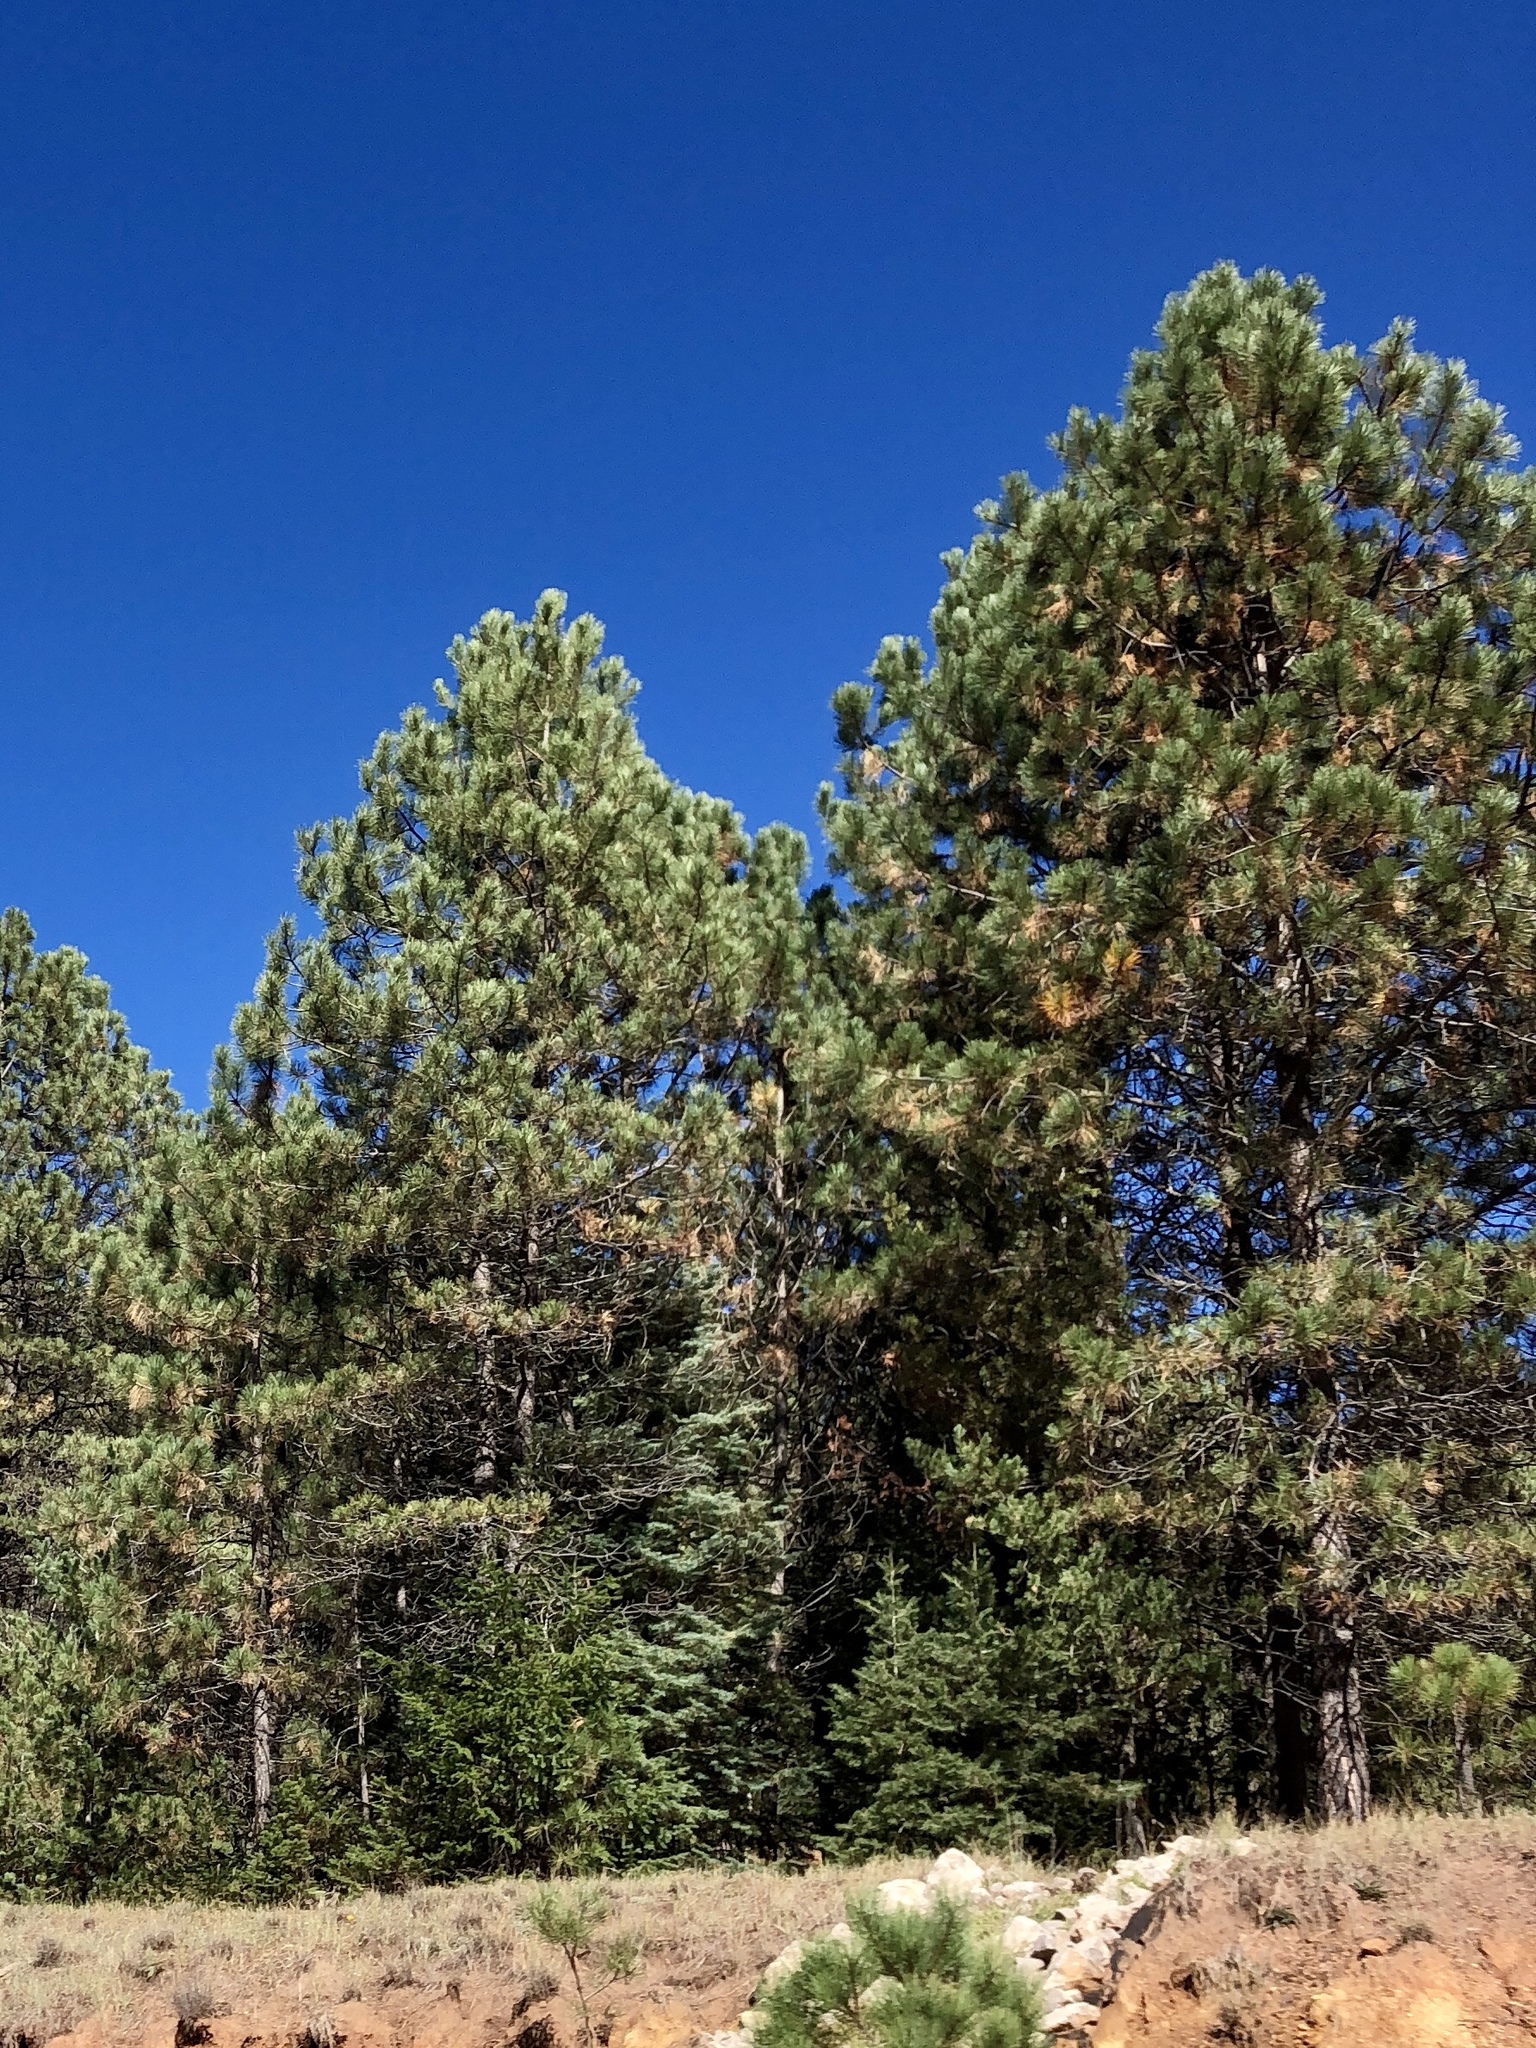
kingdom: Plantae
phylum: Tracheophyta
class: Pinopsida
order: Pinales
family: Pinaceae
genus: Pinus
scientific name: Pinus ponderosa
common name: Western yellow-pine
